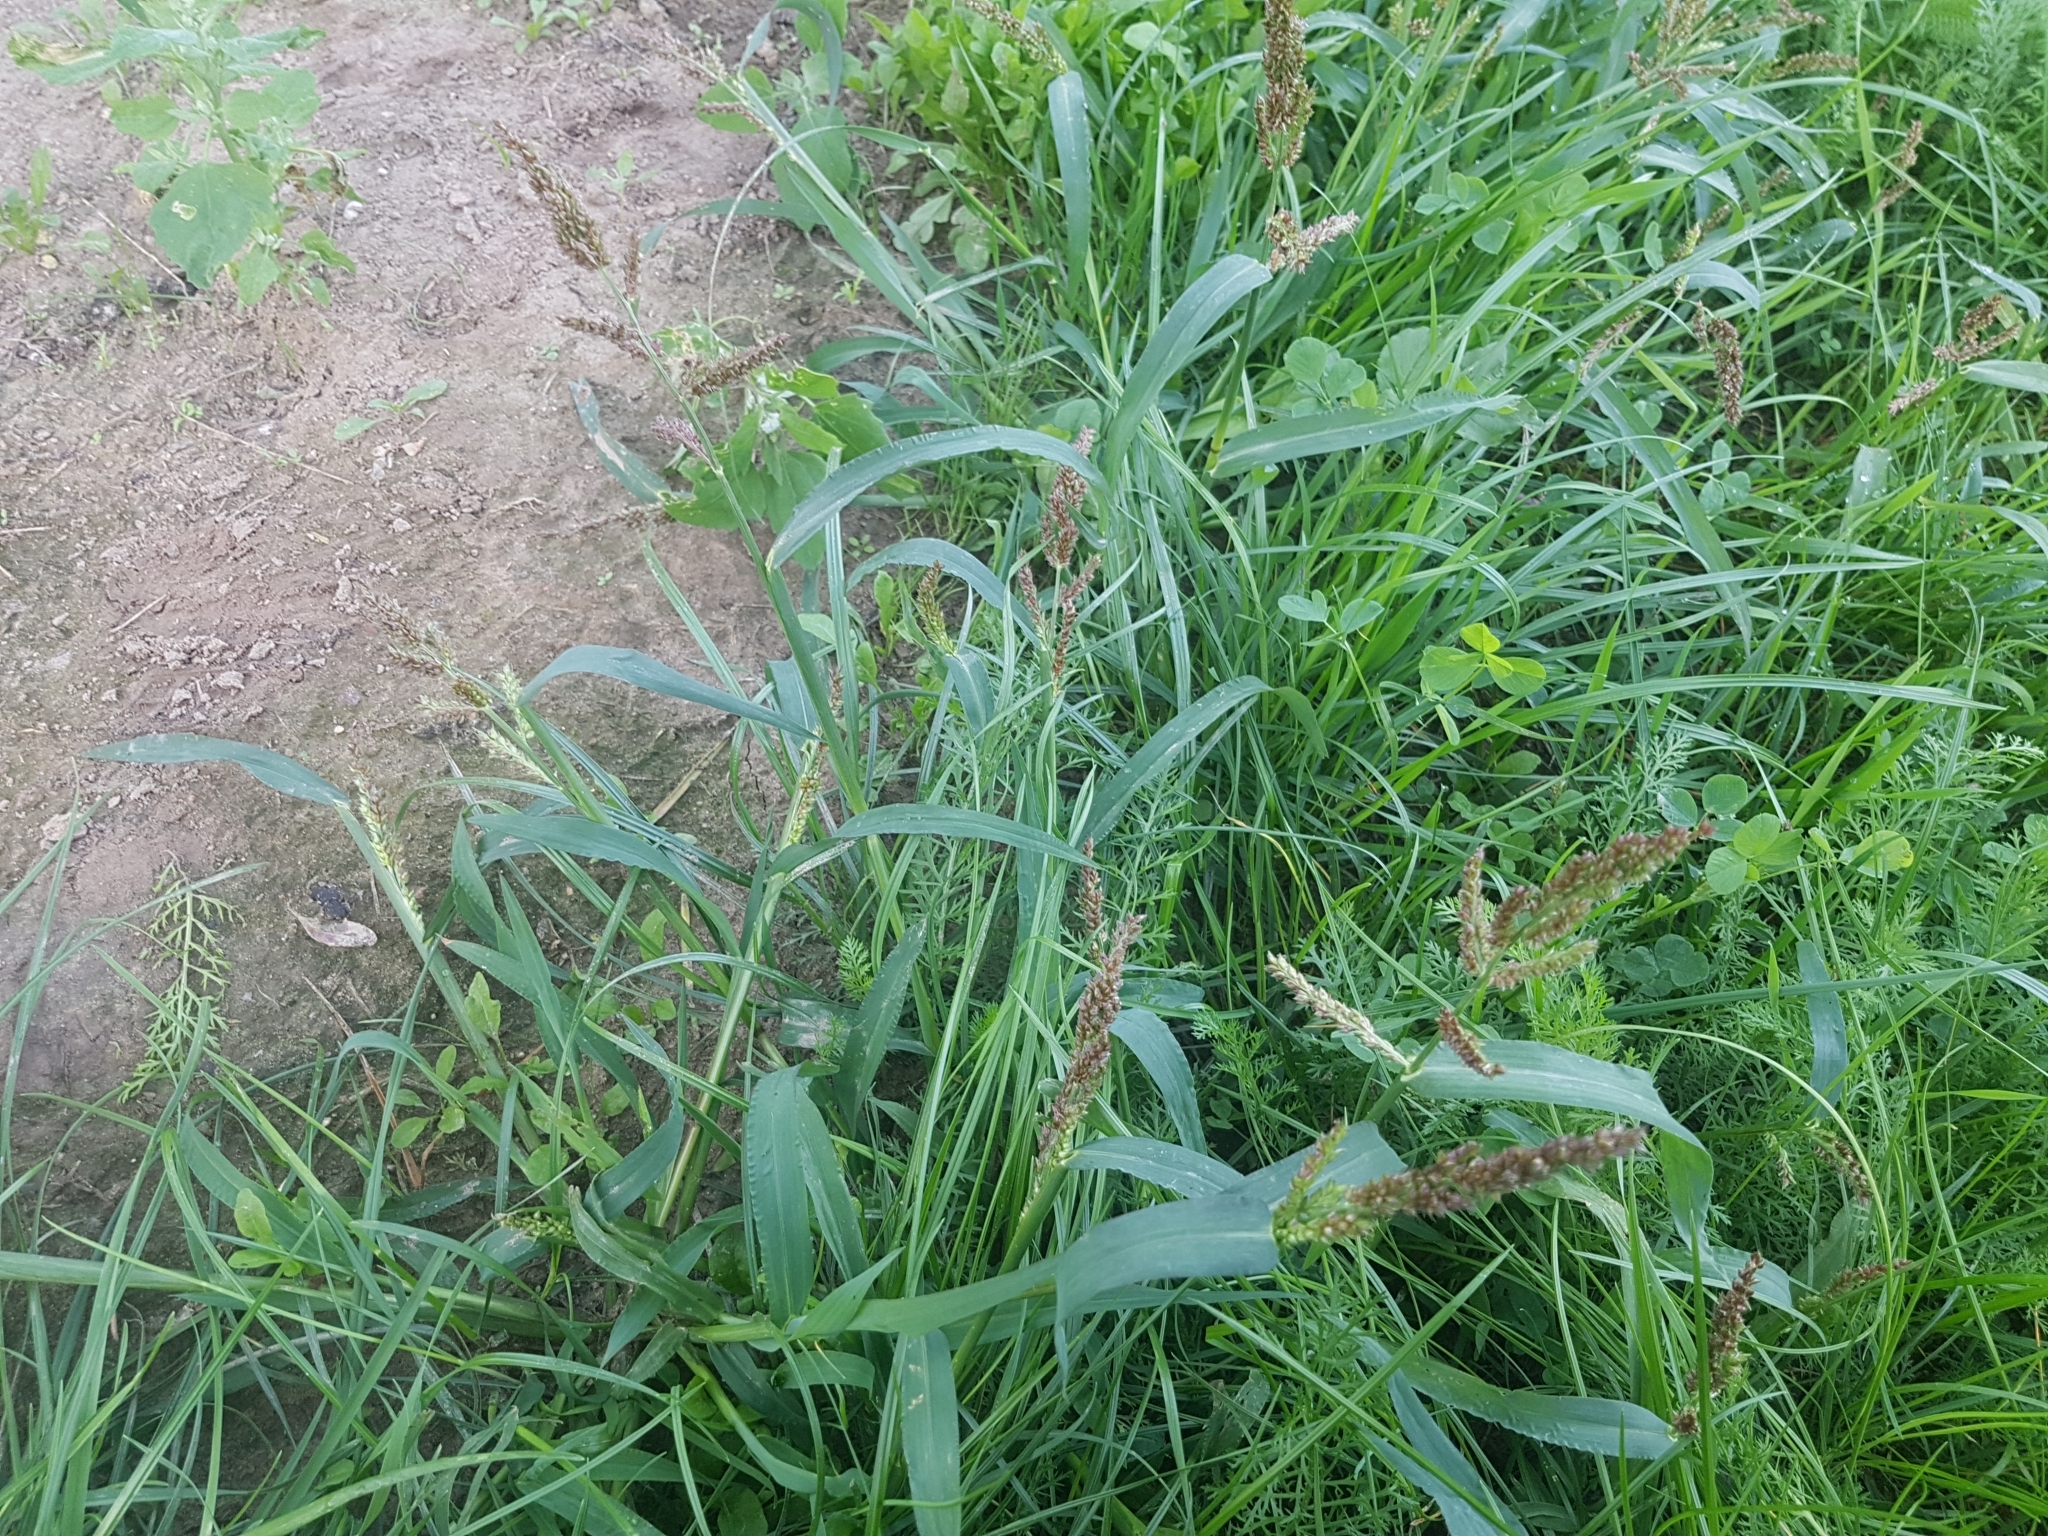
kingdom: Plantae
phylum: Tracheophyta
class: Liliopsida
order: Poales
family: Poaceae
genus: Echinochloa
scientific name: Echinochloa crus-galli
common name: Cockspur
